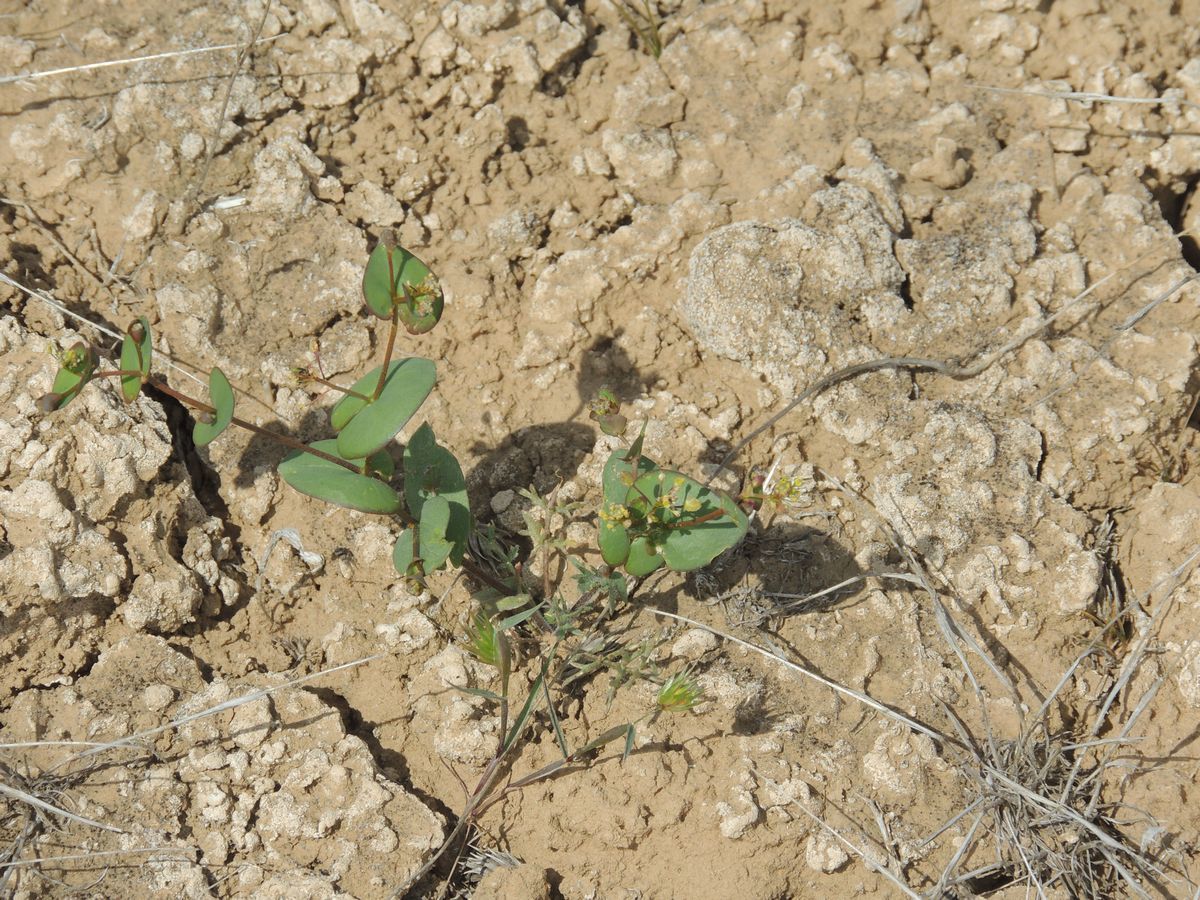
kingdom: Plantae
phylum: Tracheophyta
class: Magnoliopsida
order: Brassicales
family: Brassicaceae
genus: Lepidium
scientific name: Lepidium perfoliatum
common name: Perfoliate pepperwort
